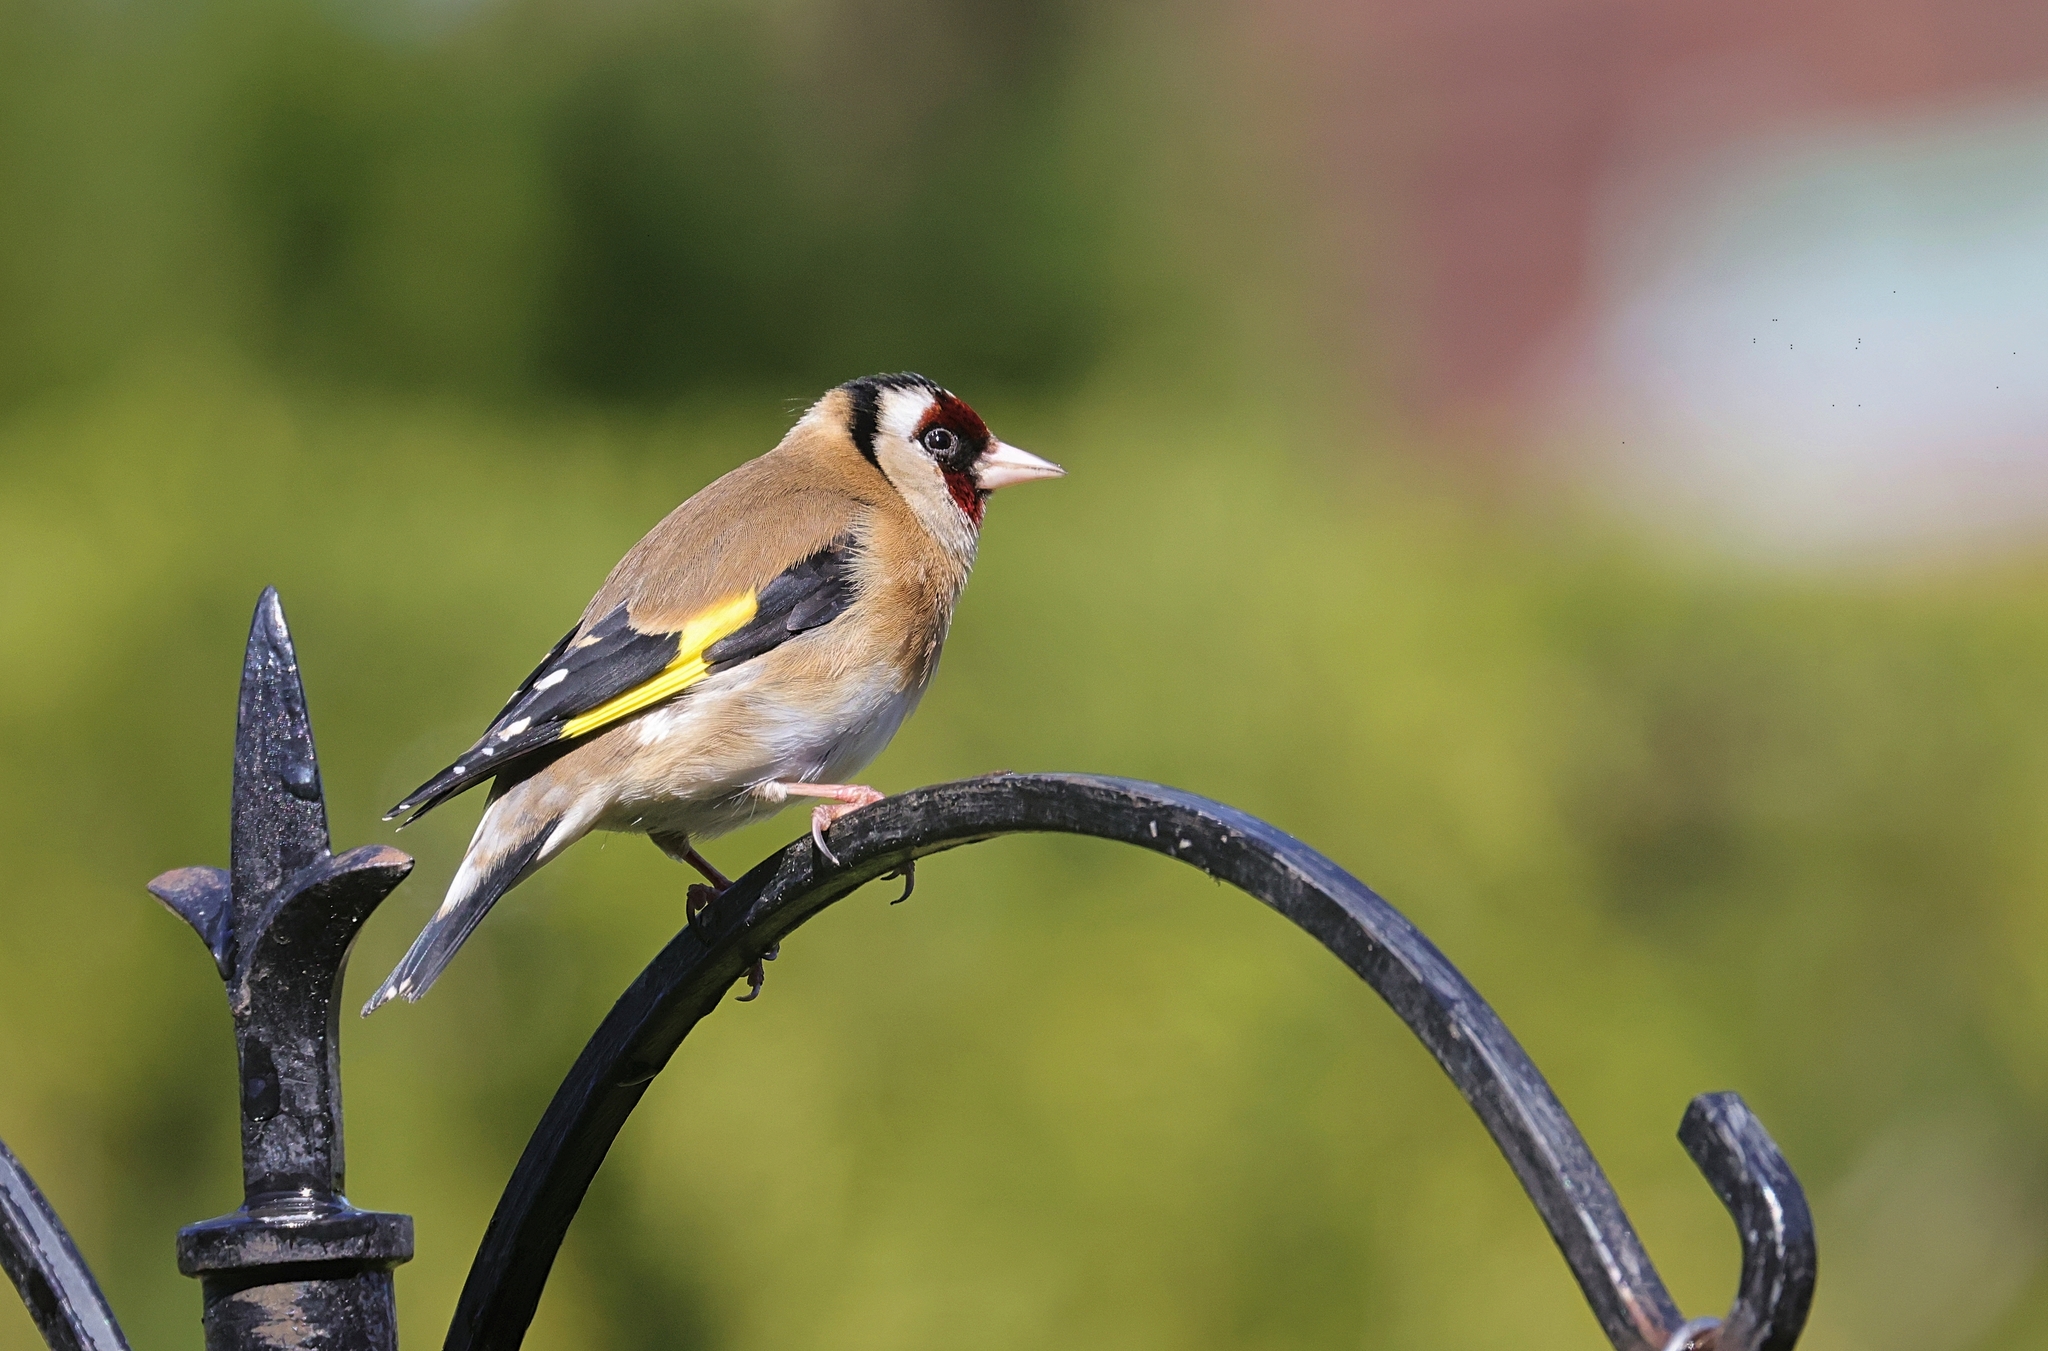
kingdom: Animalia
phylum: Chordata
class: Aves
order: Passeriformes
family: Fringillidae
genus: Carduelis
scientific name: Carduelis carduelis
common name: European goldfinch
